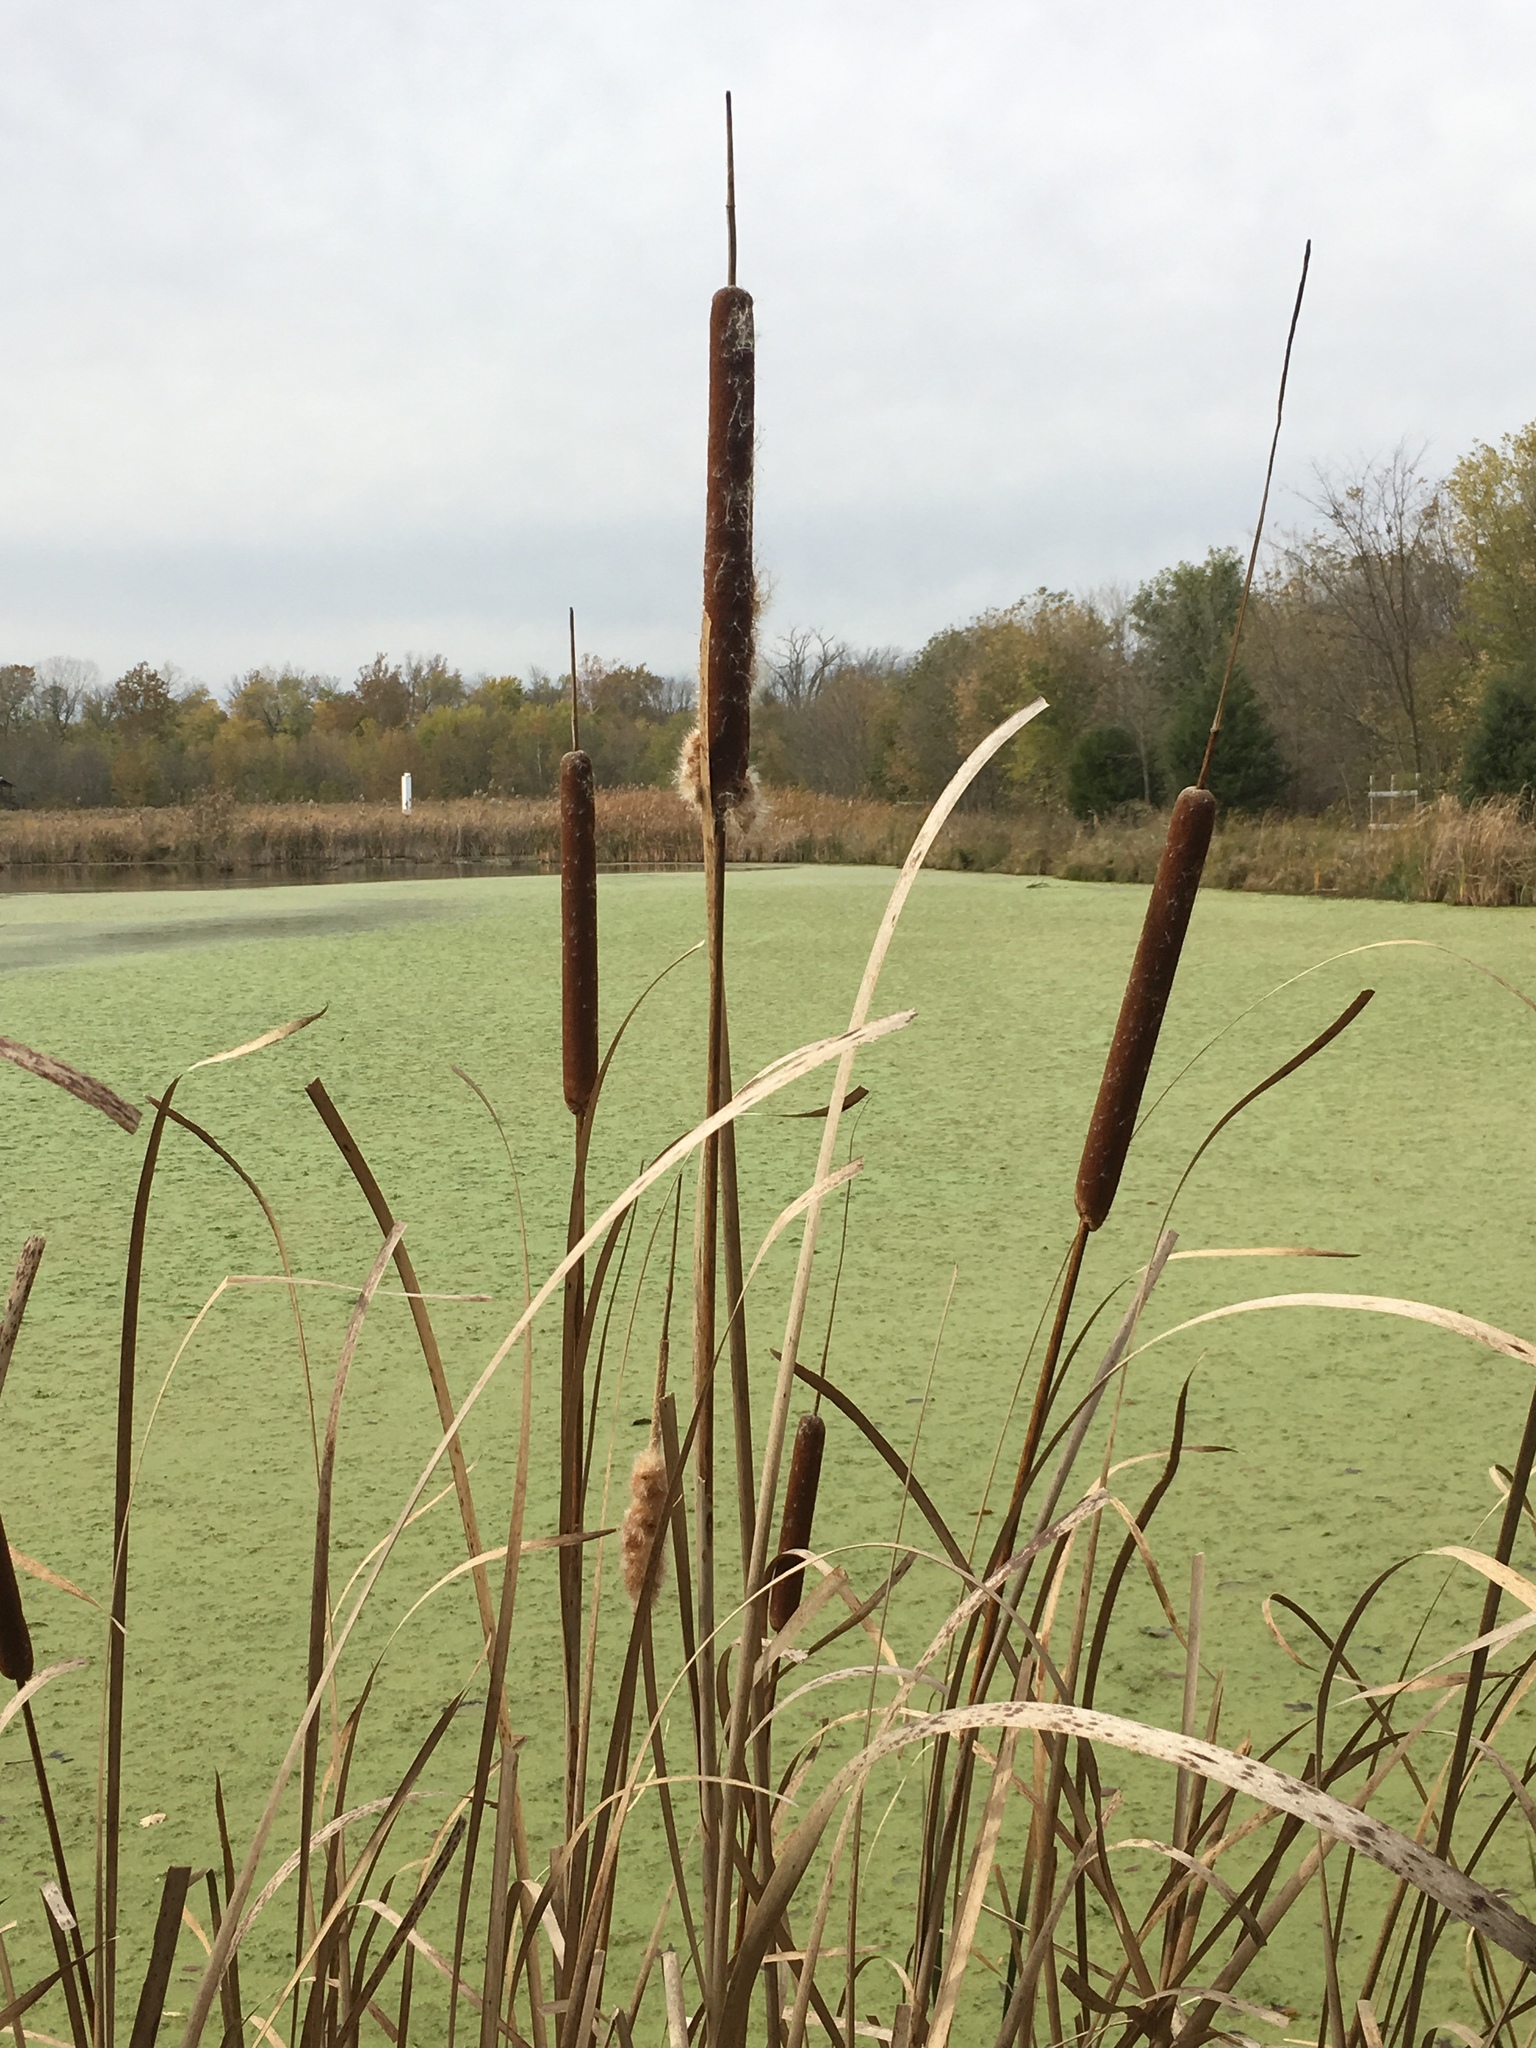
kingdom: Plantae
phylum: Tracheophyta
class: Liliopsida
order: Poales
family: Typhaceae
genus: Typha
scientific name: Typha angustifolia
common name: Lesser bulrush
